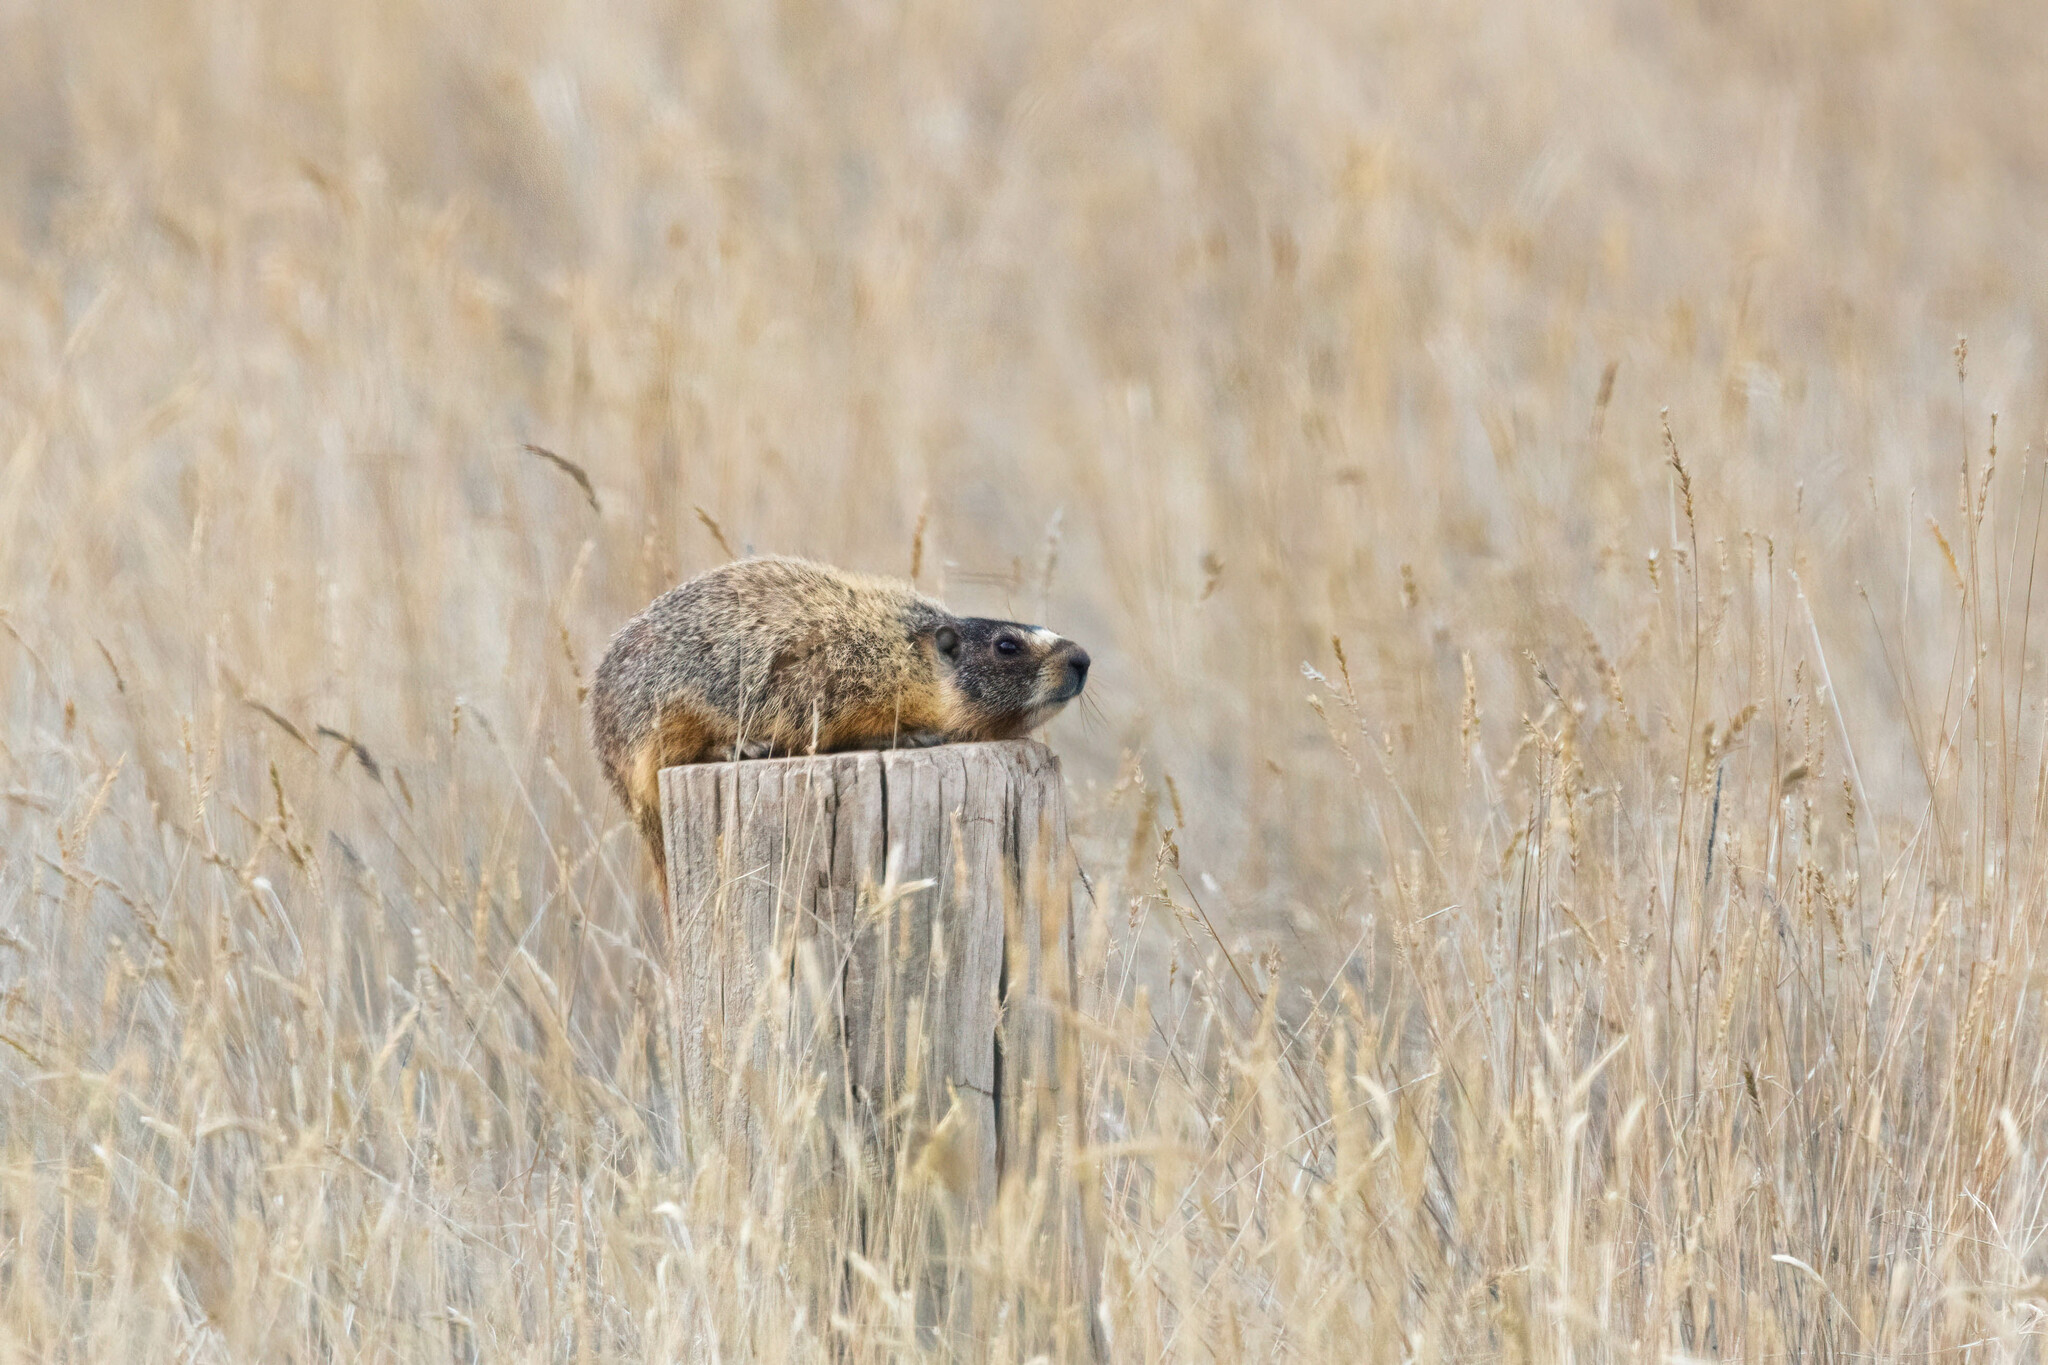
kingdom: Animalia
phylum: Chordata
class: Mammalia
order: Rodentia
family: Sciuridae
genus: Marmota
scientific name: Marmota flaviventris
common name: Yellow-bellied marmot
